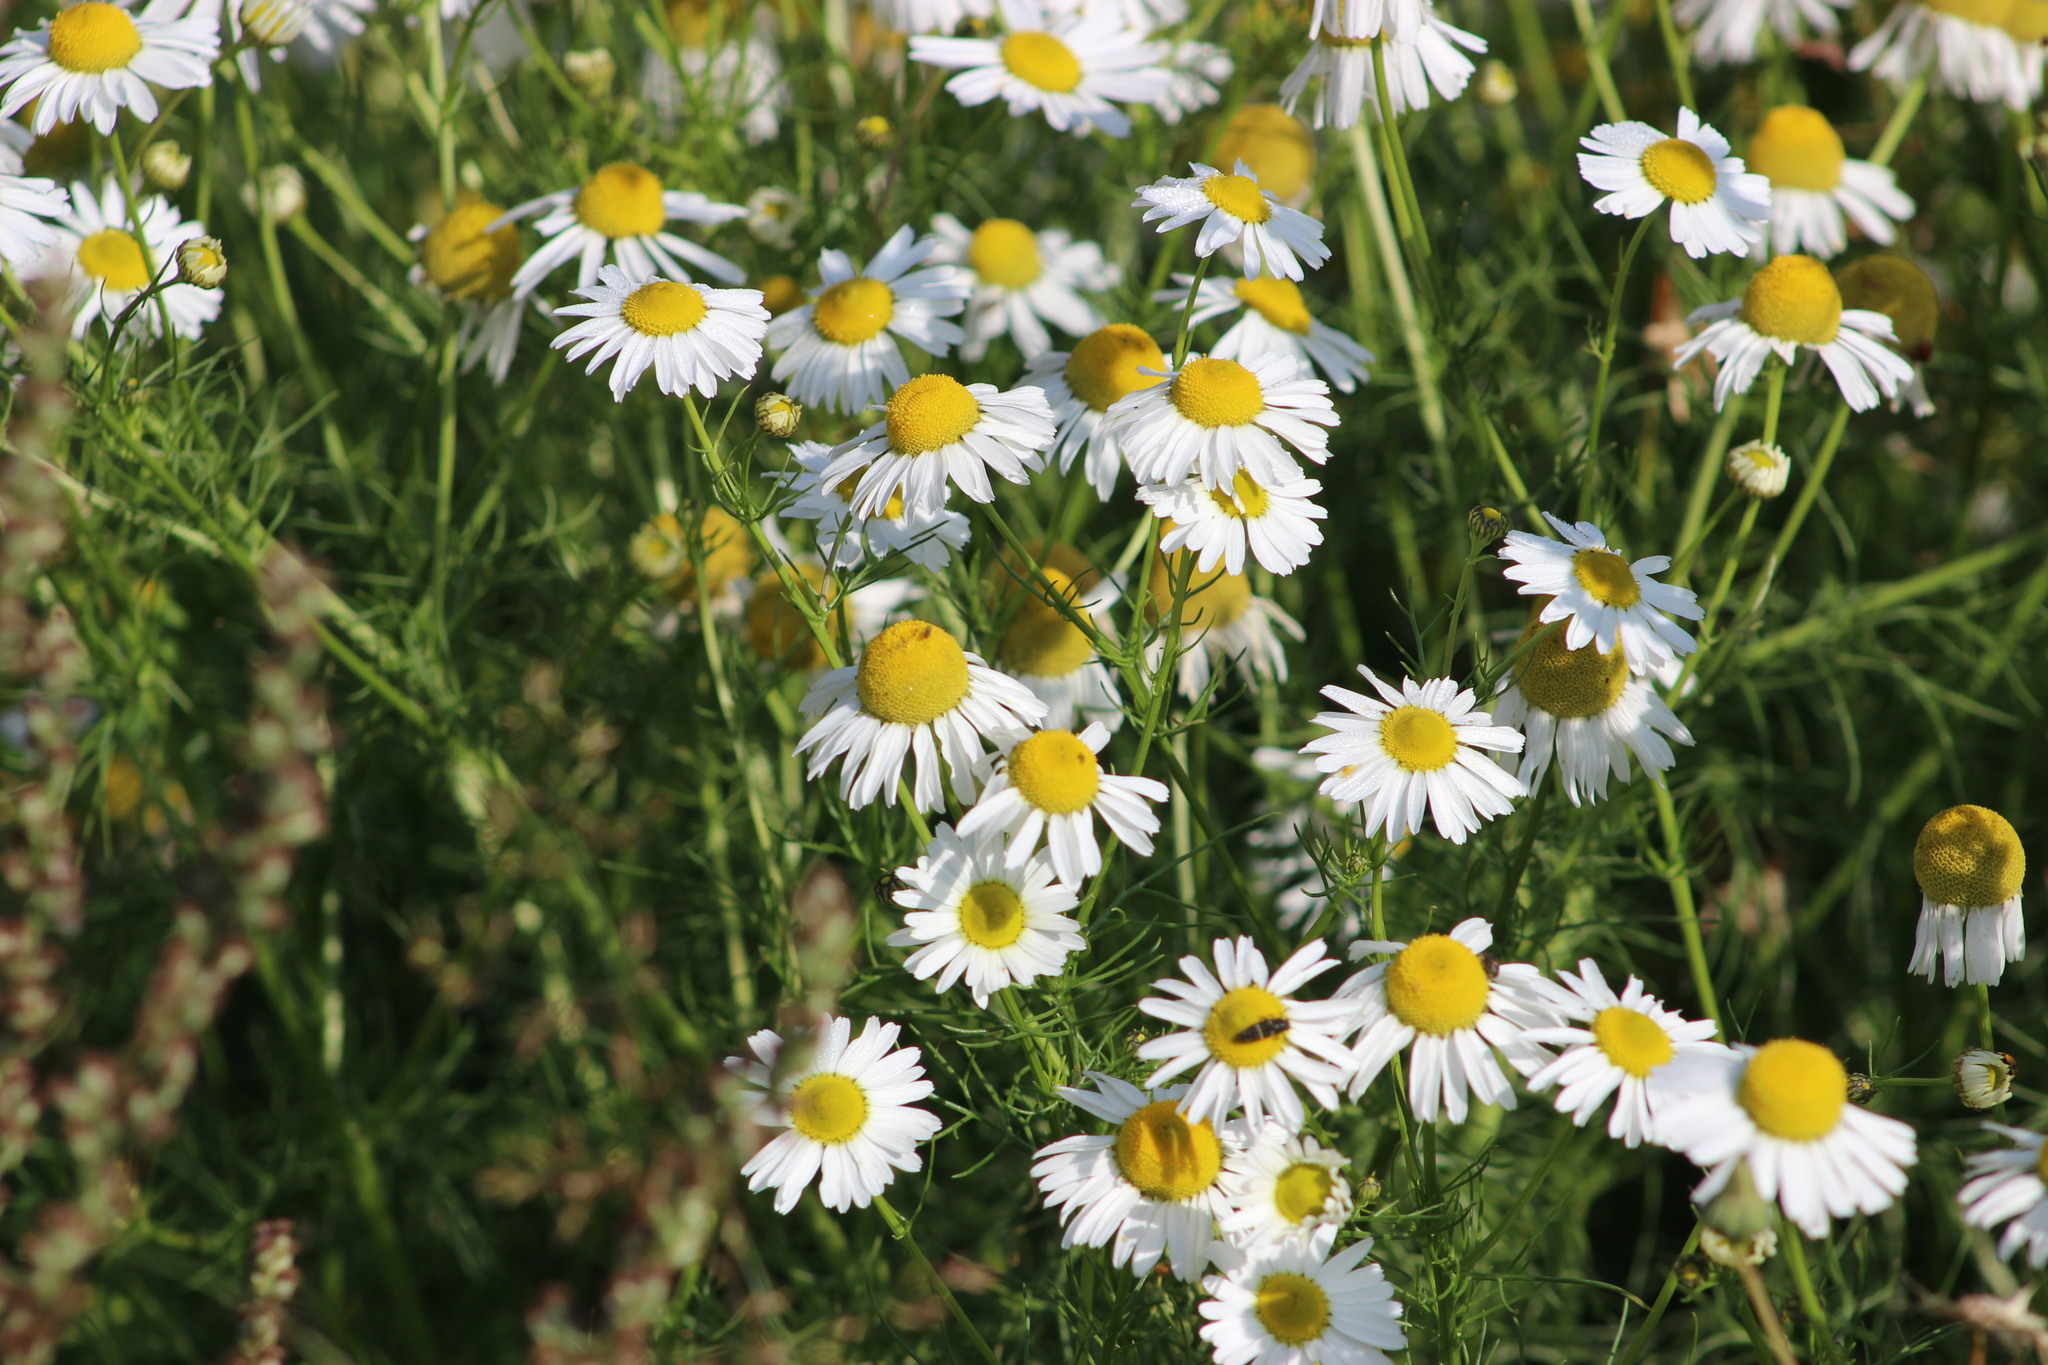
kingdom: Plantae
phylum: Tracheophyta
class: Magnoliopsida
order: Asterales
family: Asteraceae
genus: Tripleurospermum
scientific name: Tripleurospermum inodorum
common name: Scentless mayweed
